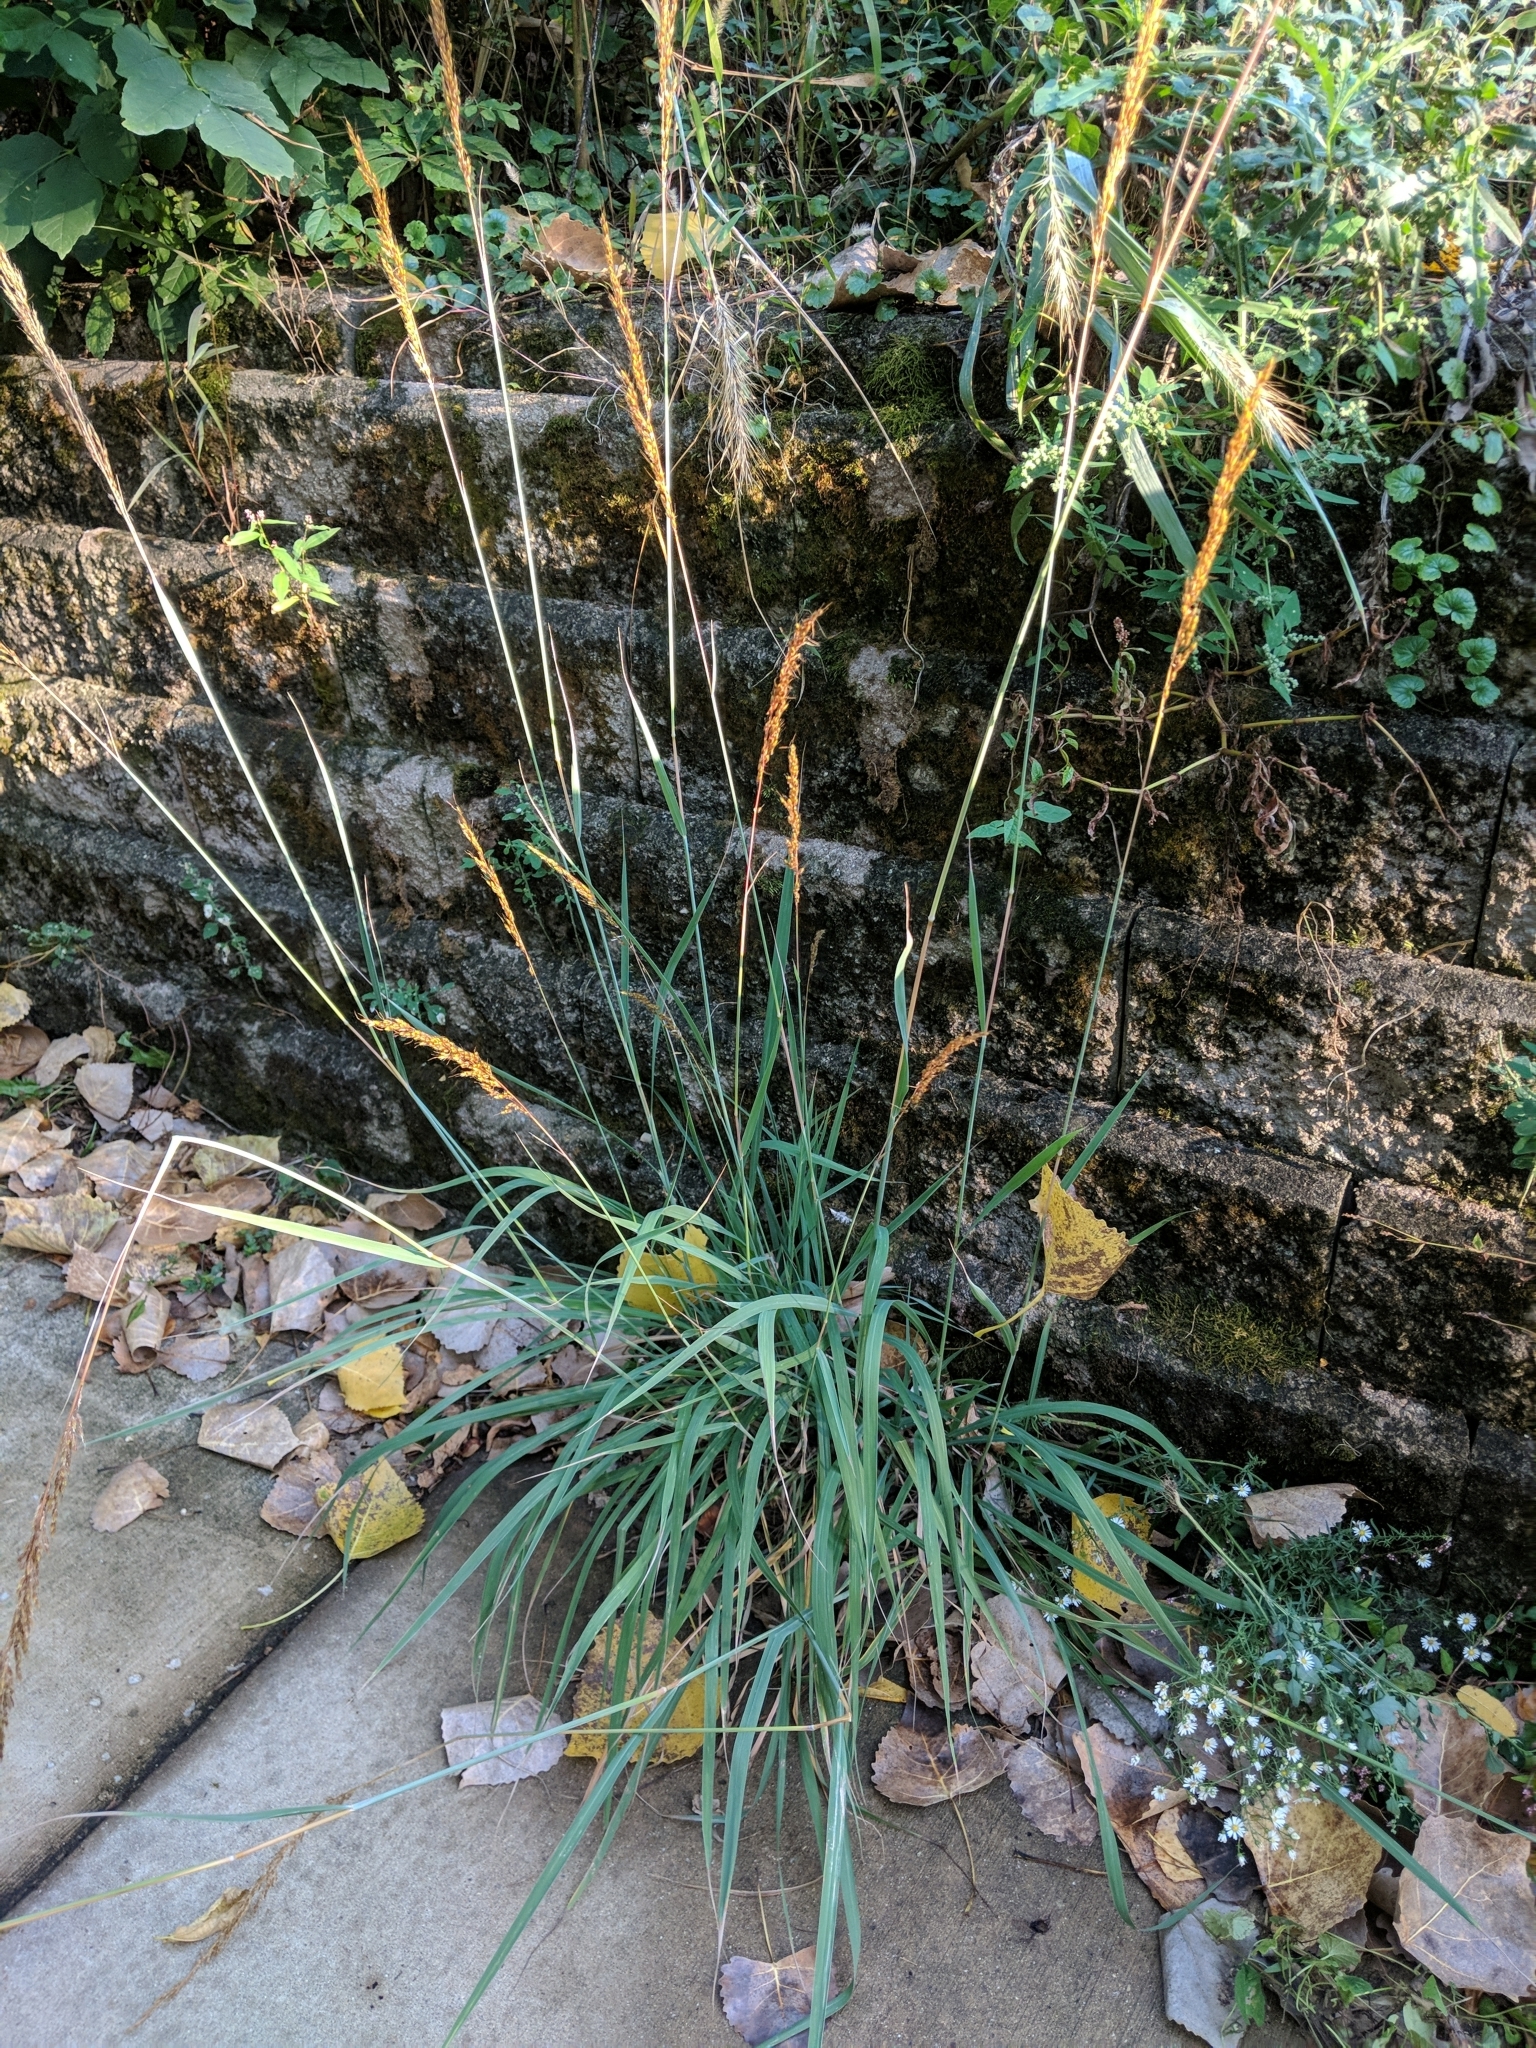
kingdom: Plantae
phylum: Tracheophyta
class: Liliopsida
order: Poales
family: Poaceae
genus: Sorghastrum
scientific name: Sorghastrum nutans
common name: Indian grass
